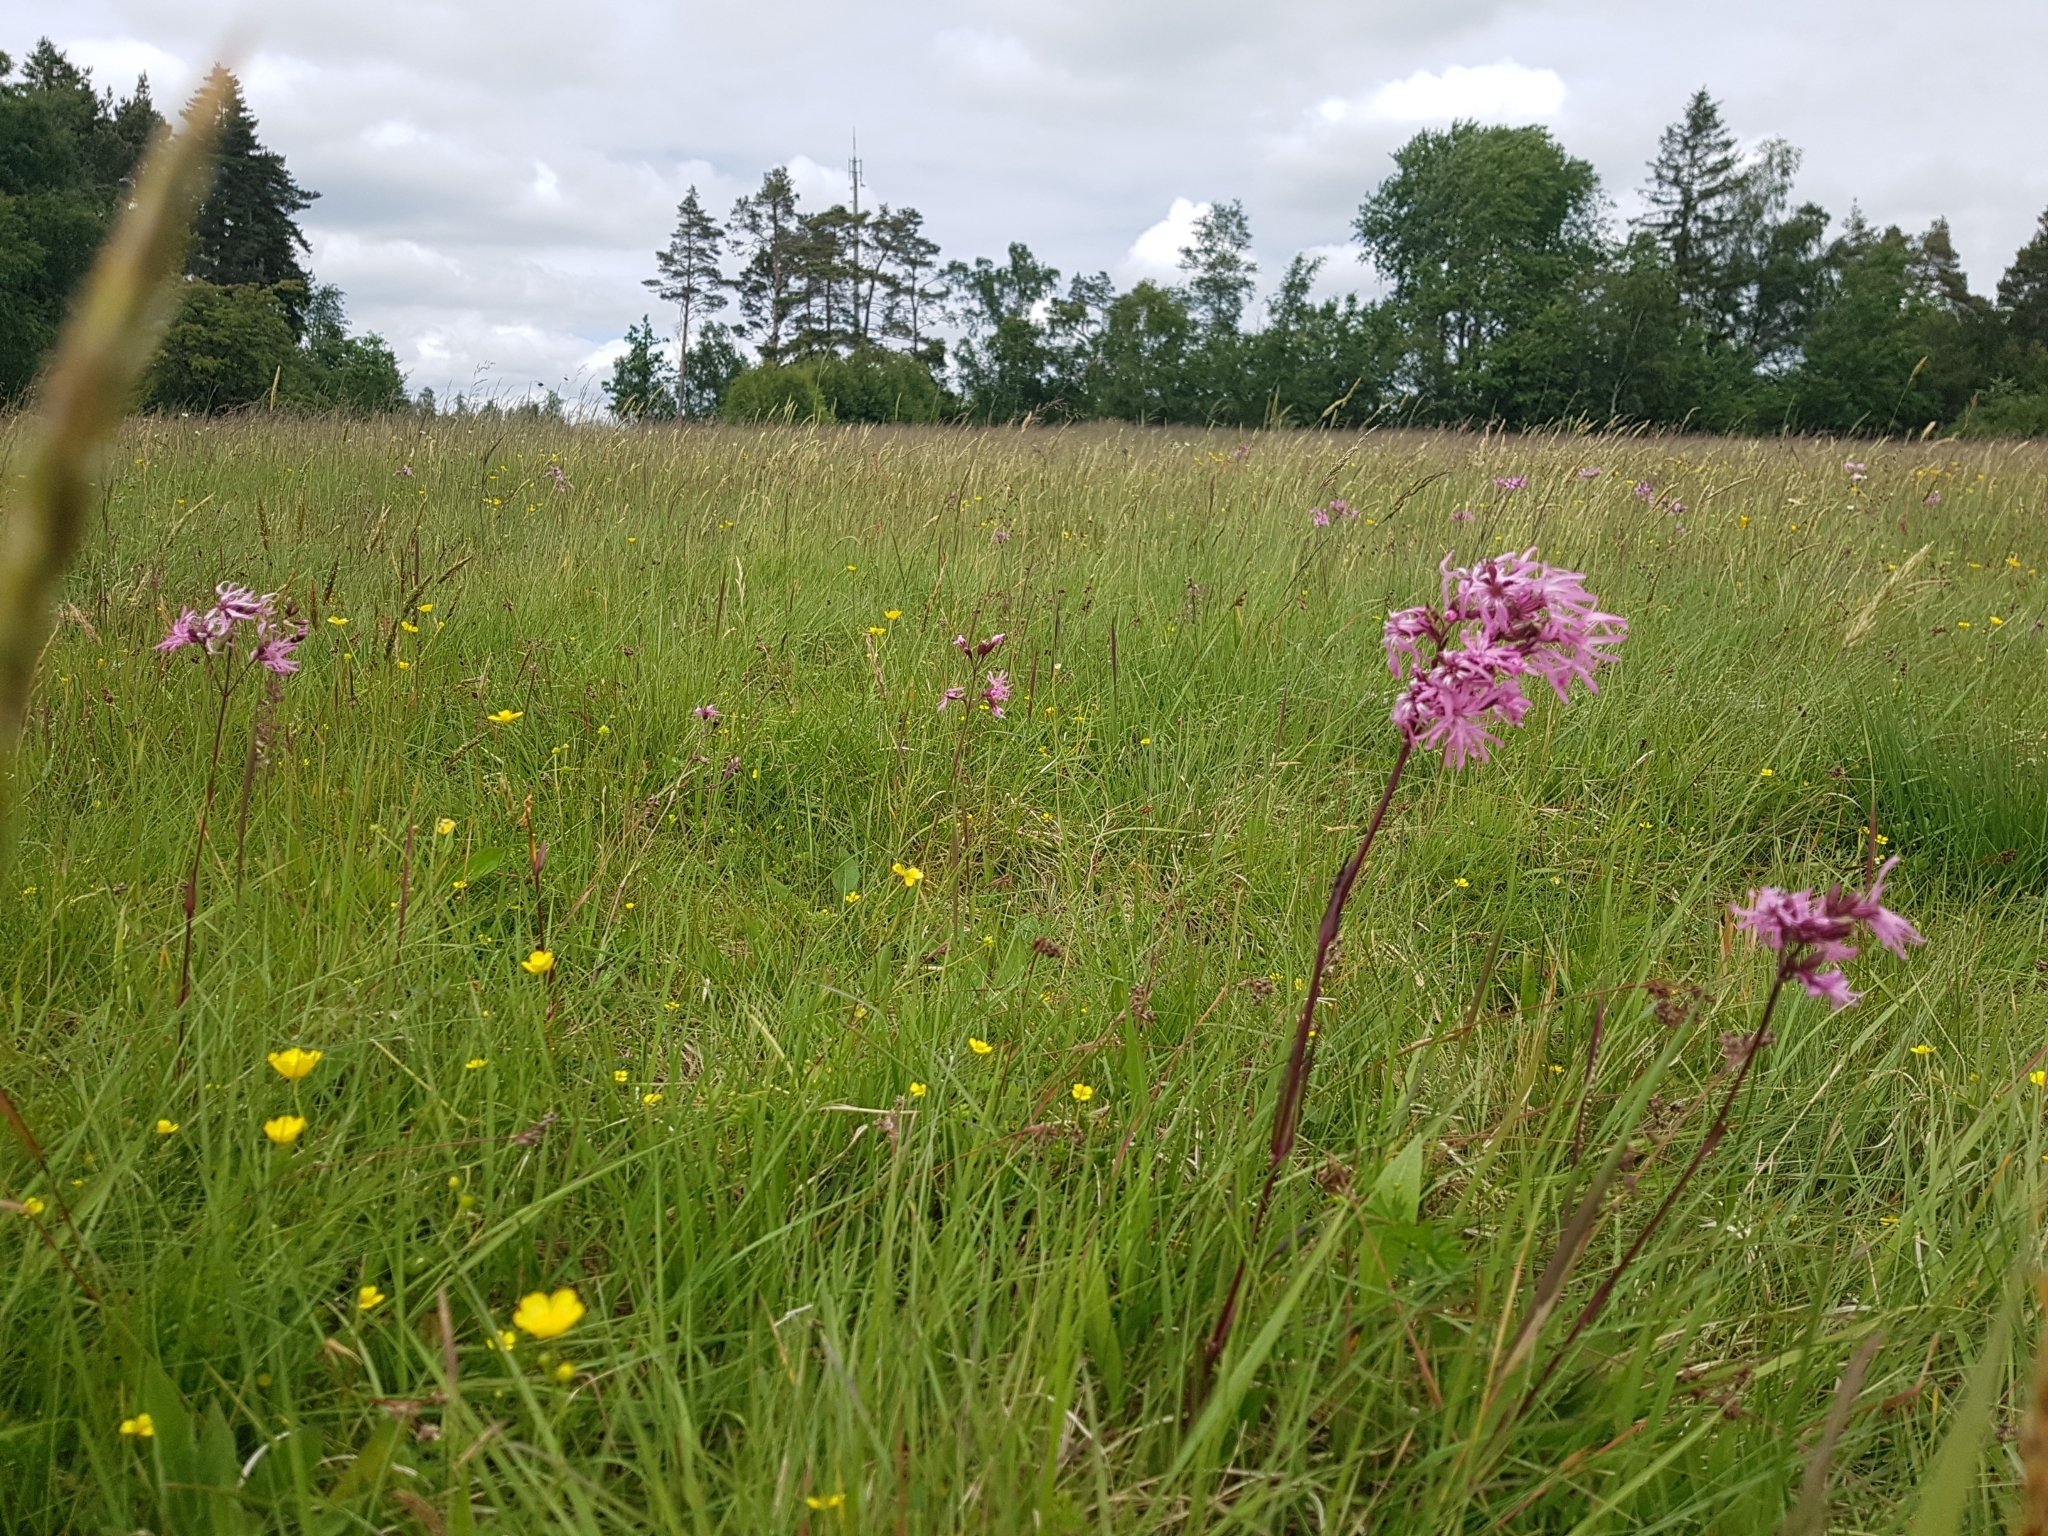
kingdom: Plantae
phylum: Tracheophyta
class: Magnoliopsida
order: Caryophyllales
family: Caryophyllaceae
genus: Silene
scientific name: Silene flos-cuculi
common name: Ragged-robin
